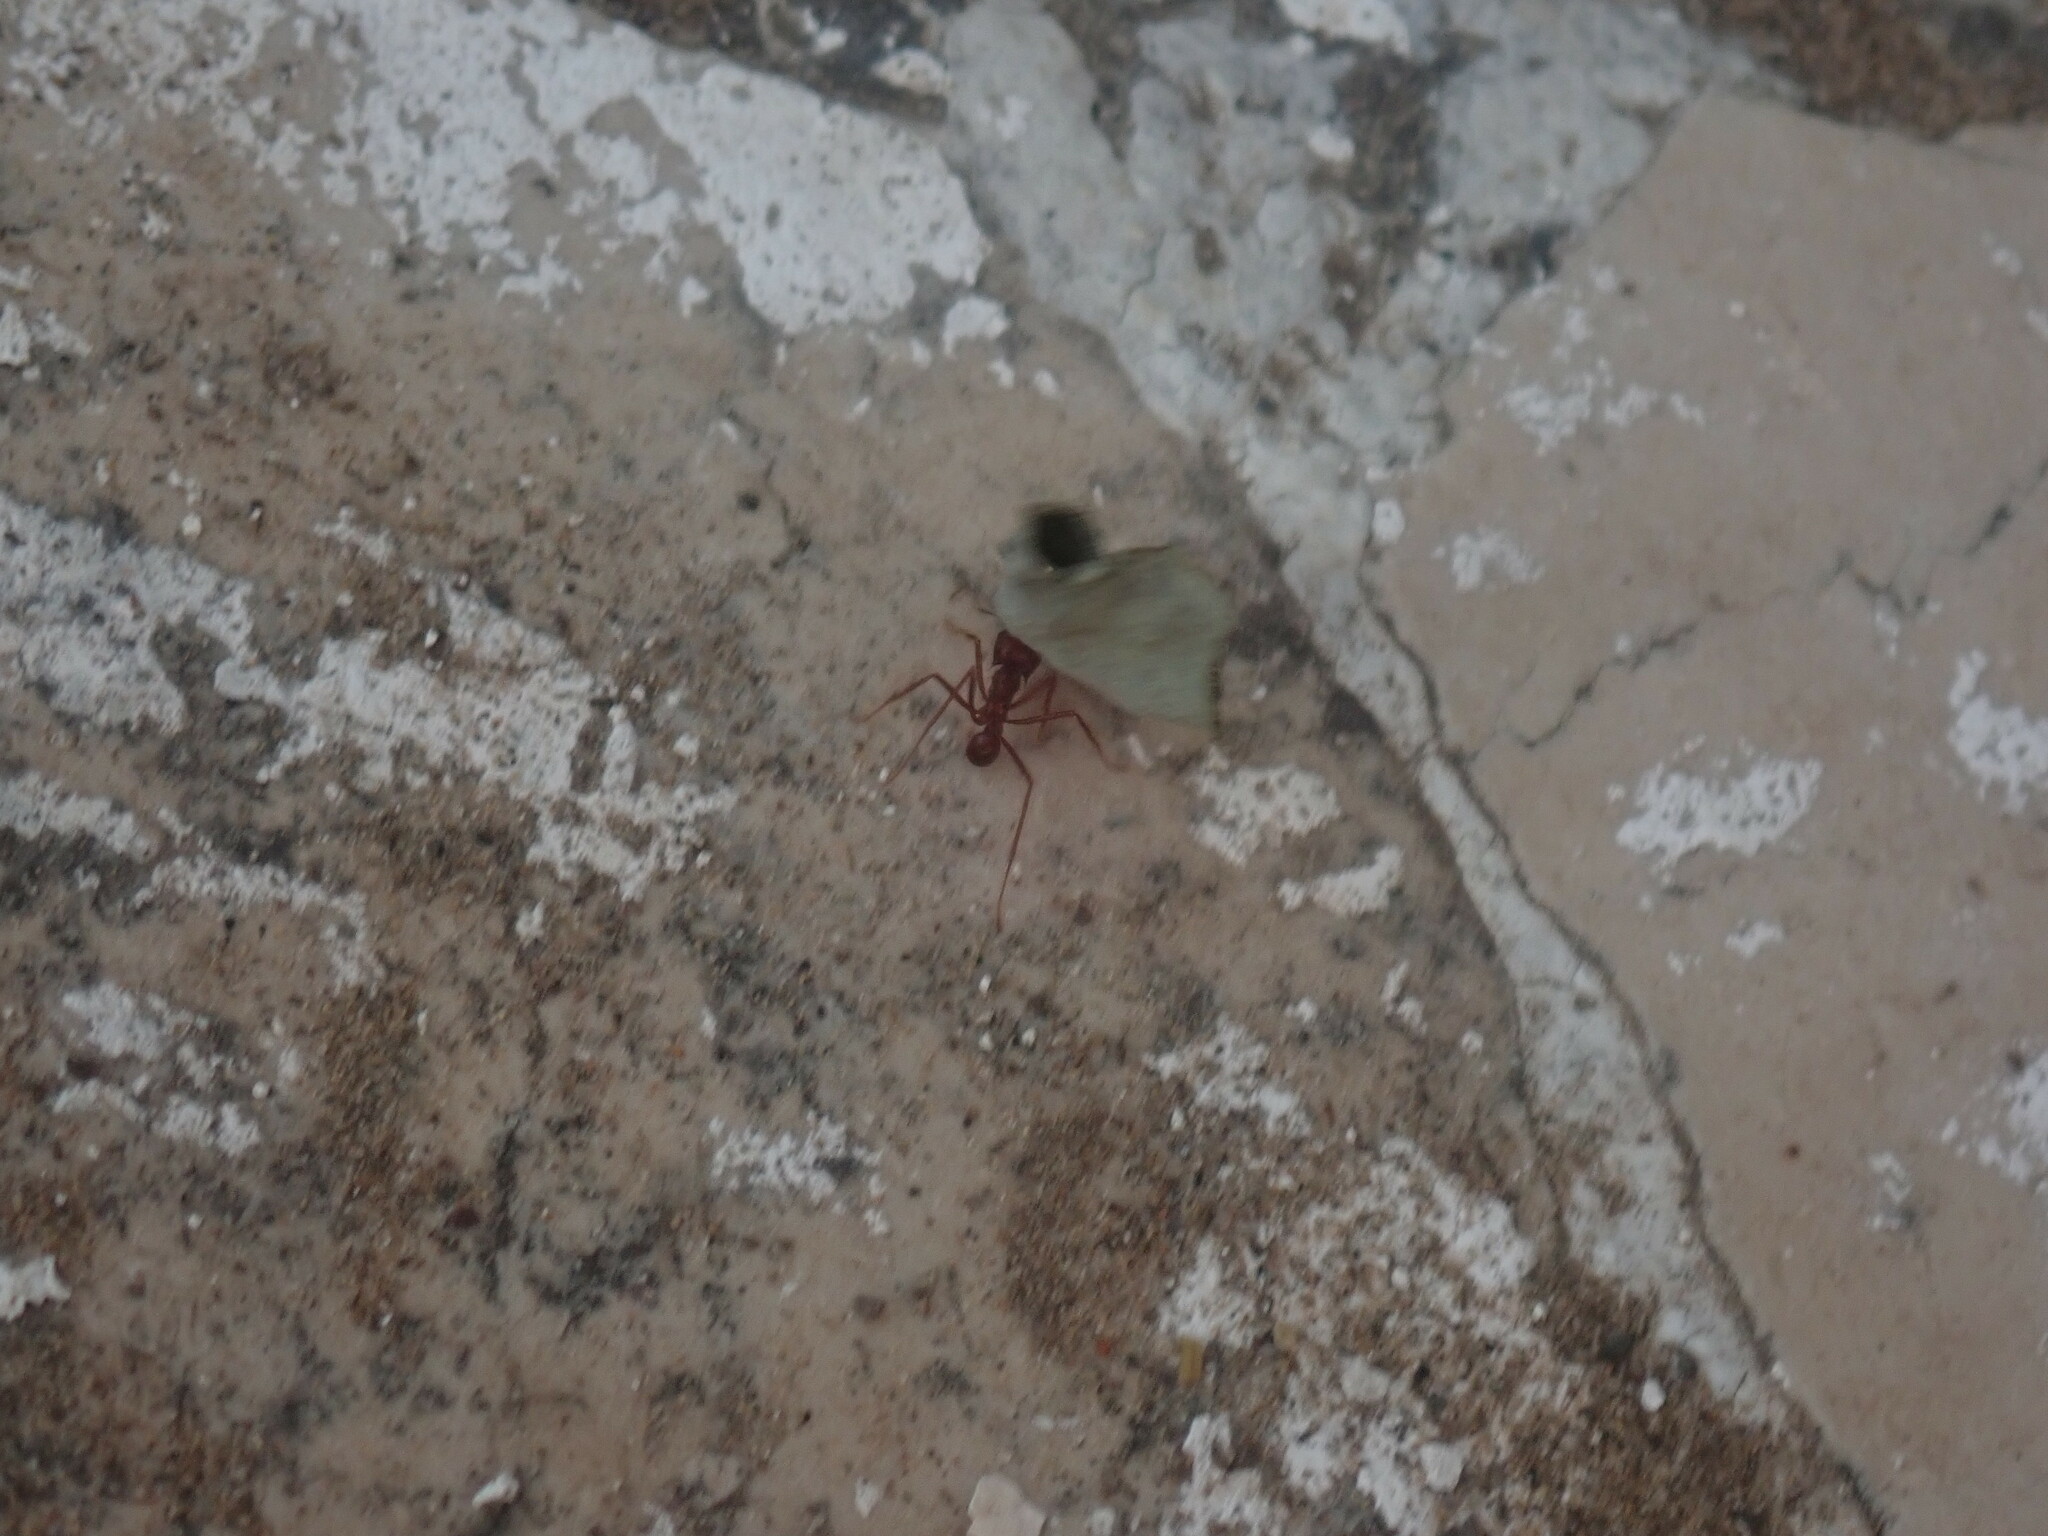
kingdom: Animalia
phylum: Arthropoda
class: Insecta
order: Hymenoptera
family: Formicidae
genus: Atta
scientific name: Atta mexicana
